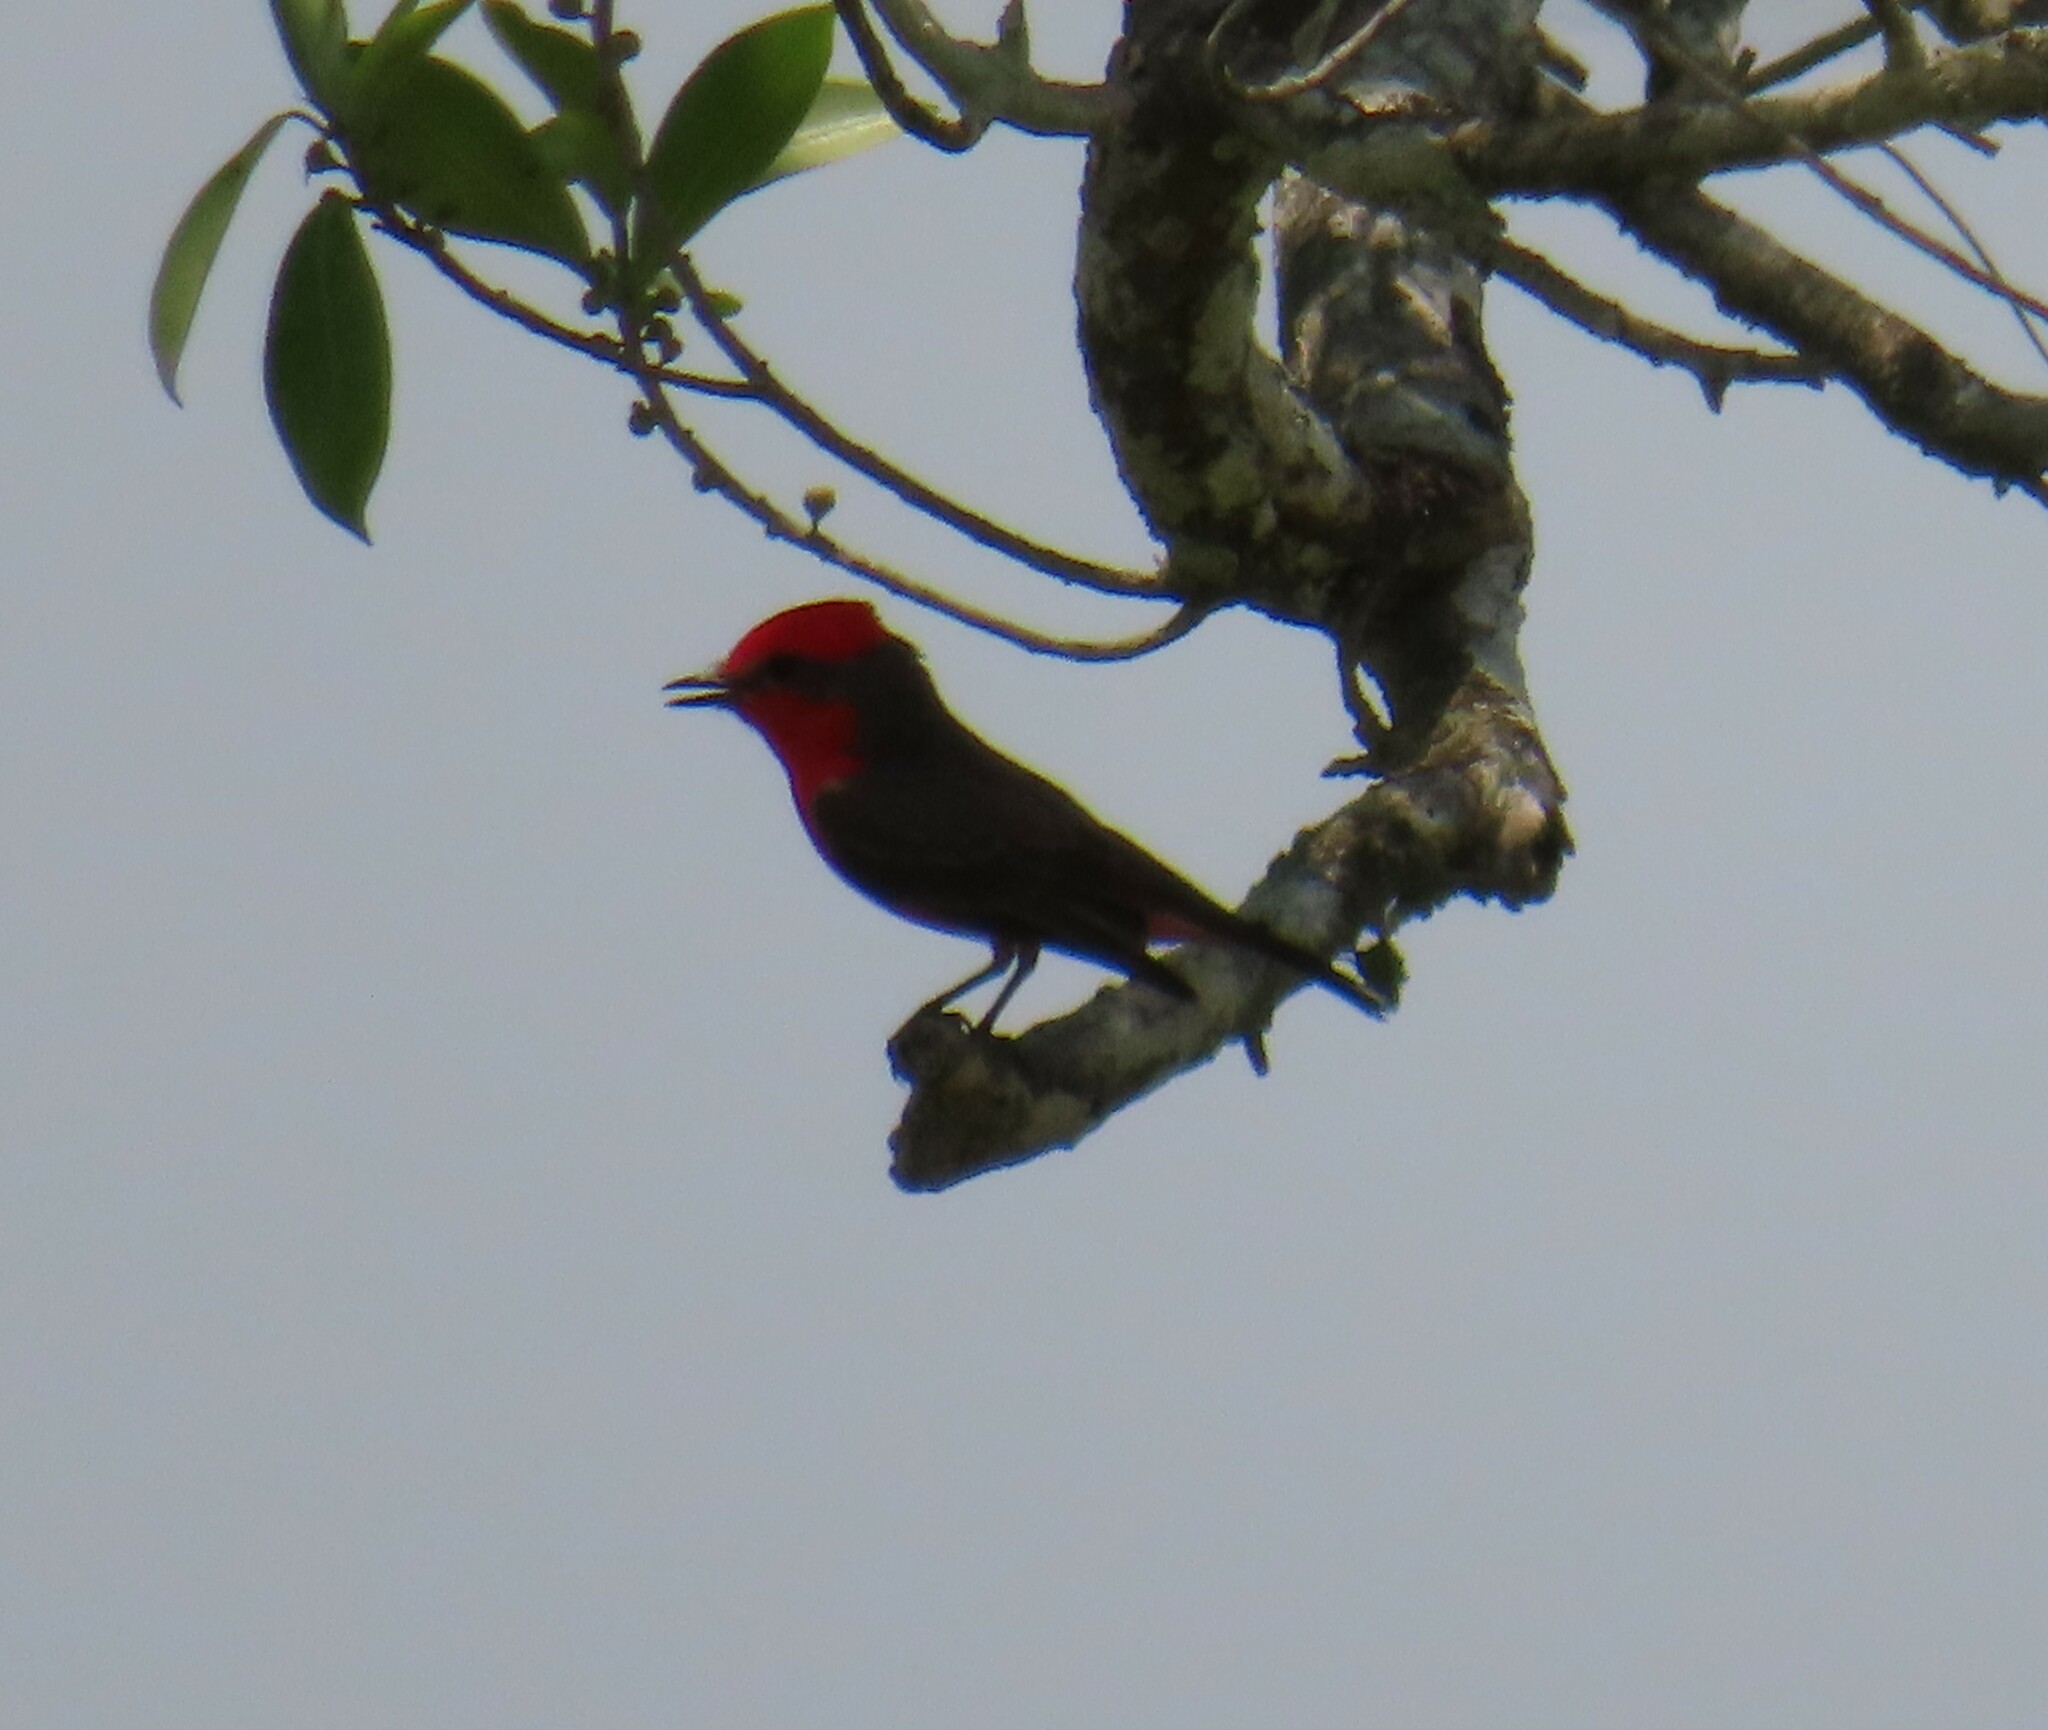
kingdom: Animalia
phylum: Chordata
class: Aves
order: Passeriformes
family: Tyrannidae
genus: Pyrocephalus
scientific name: Pyrocephalus rubinus
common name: Vermilion flycatcher
